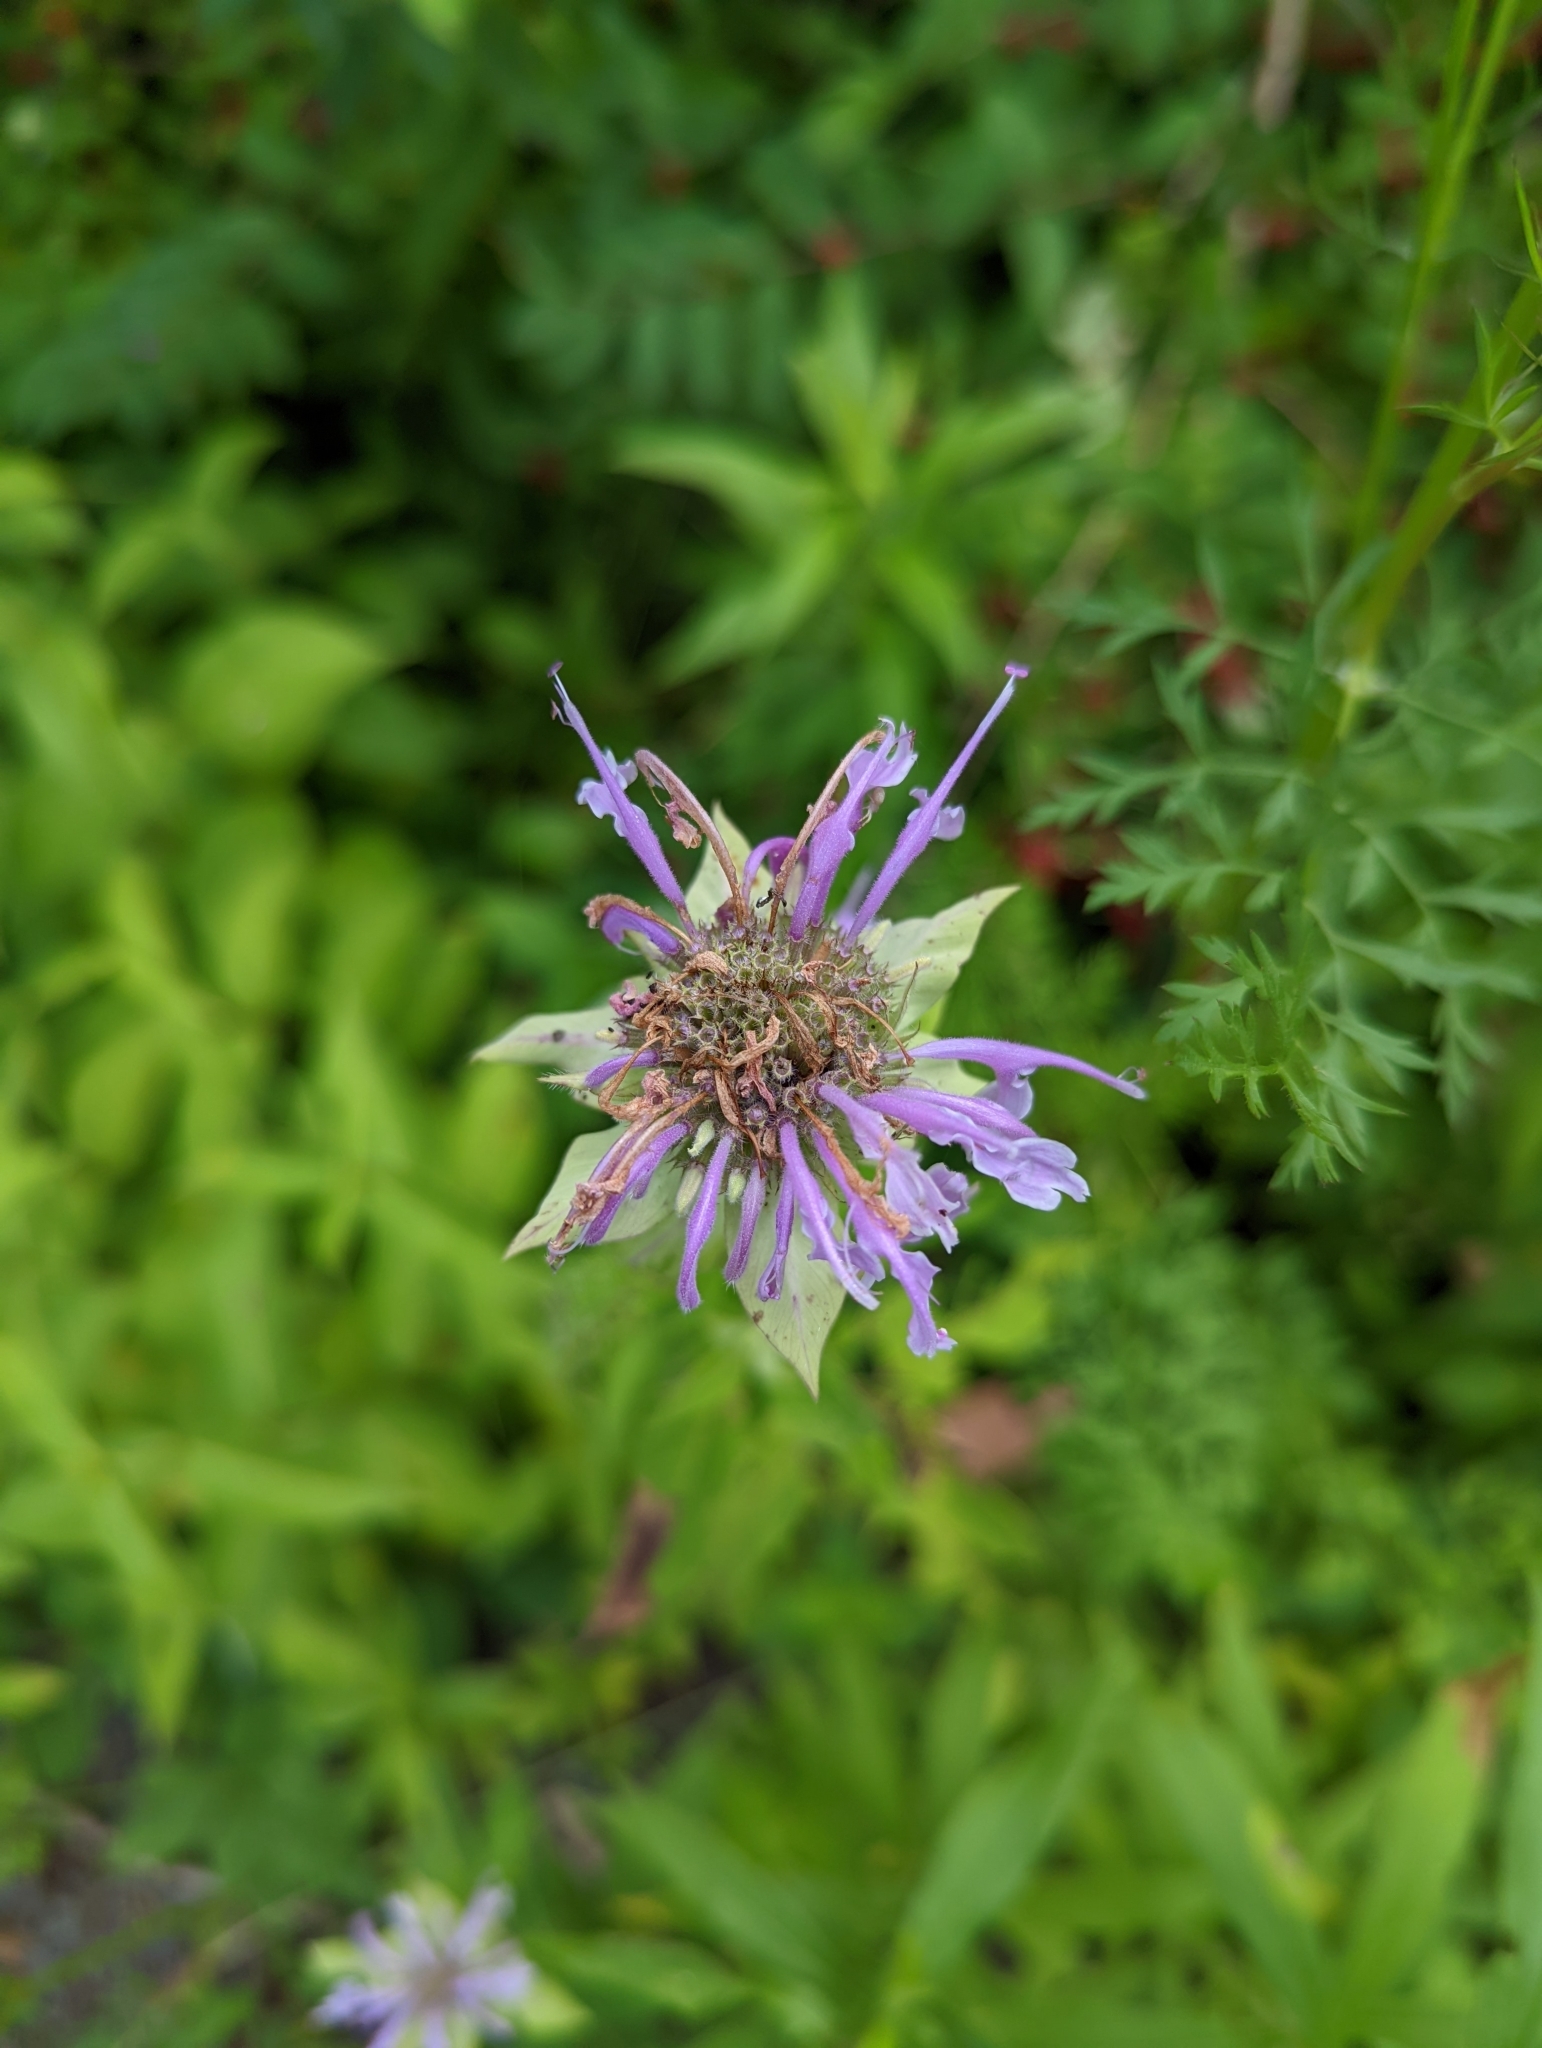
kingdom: Plantae
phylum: Tracheophyta
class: Magnoliopsida
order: Lamiales
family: Lamiaceae
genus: Monarda
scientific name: Monarda fistulosa
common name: Purple beebalm
